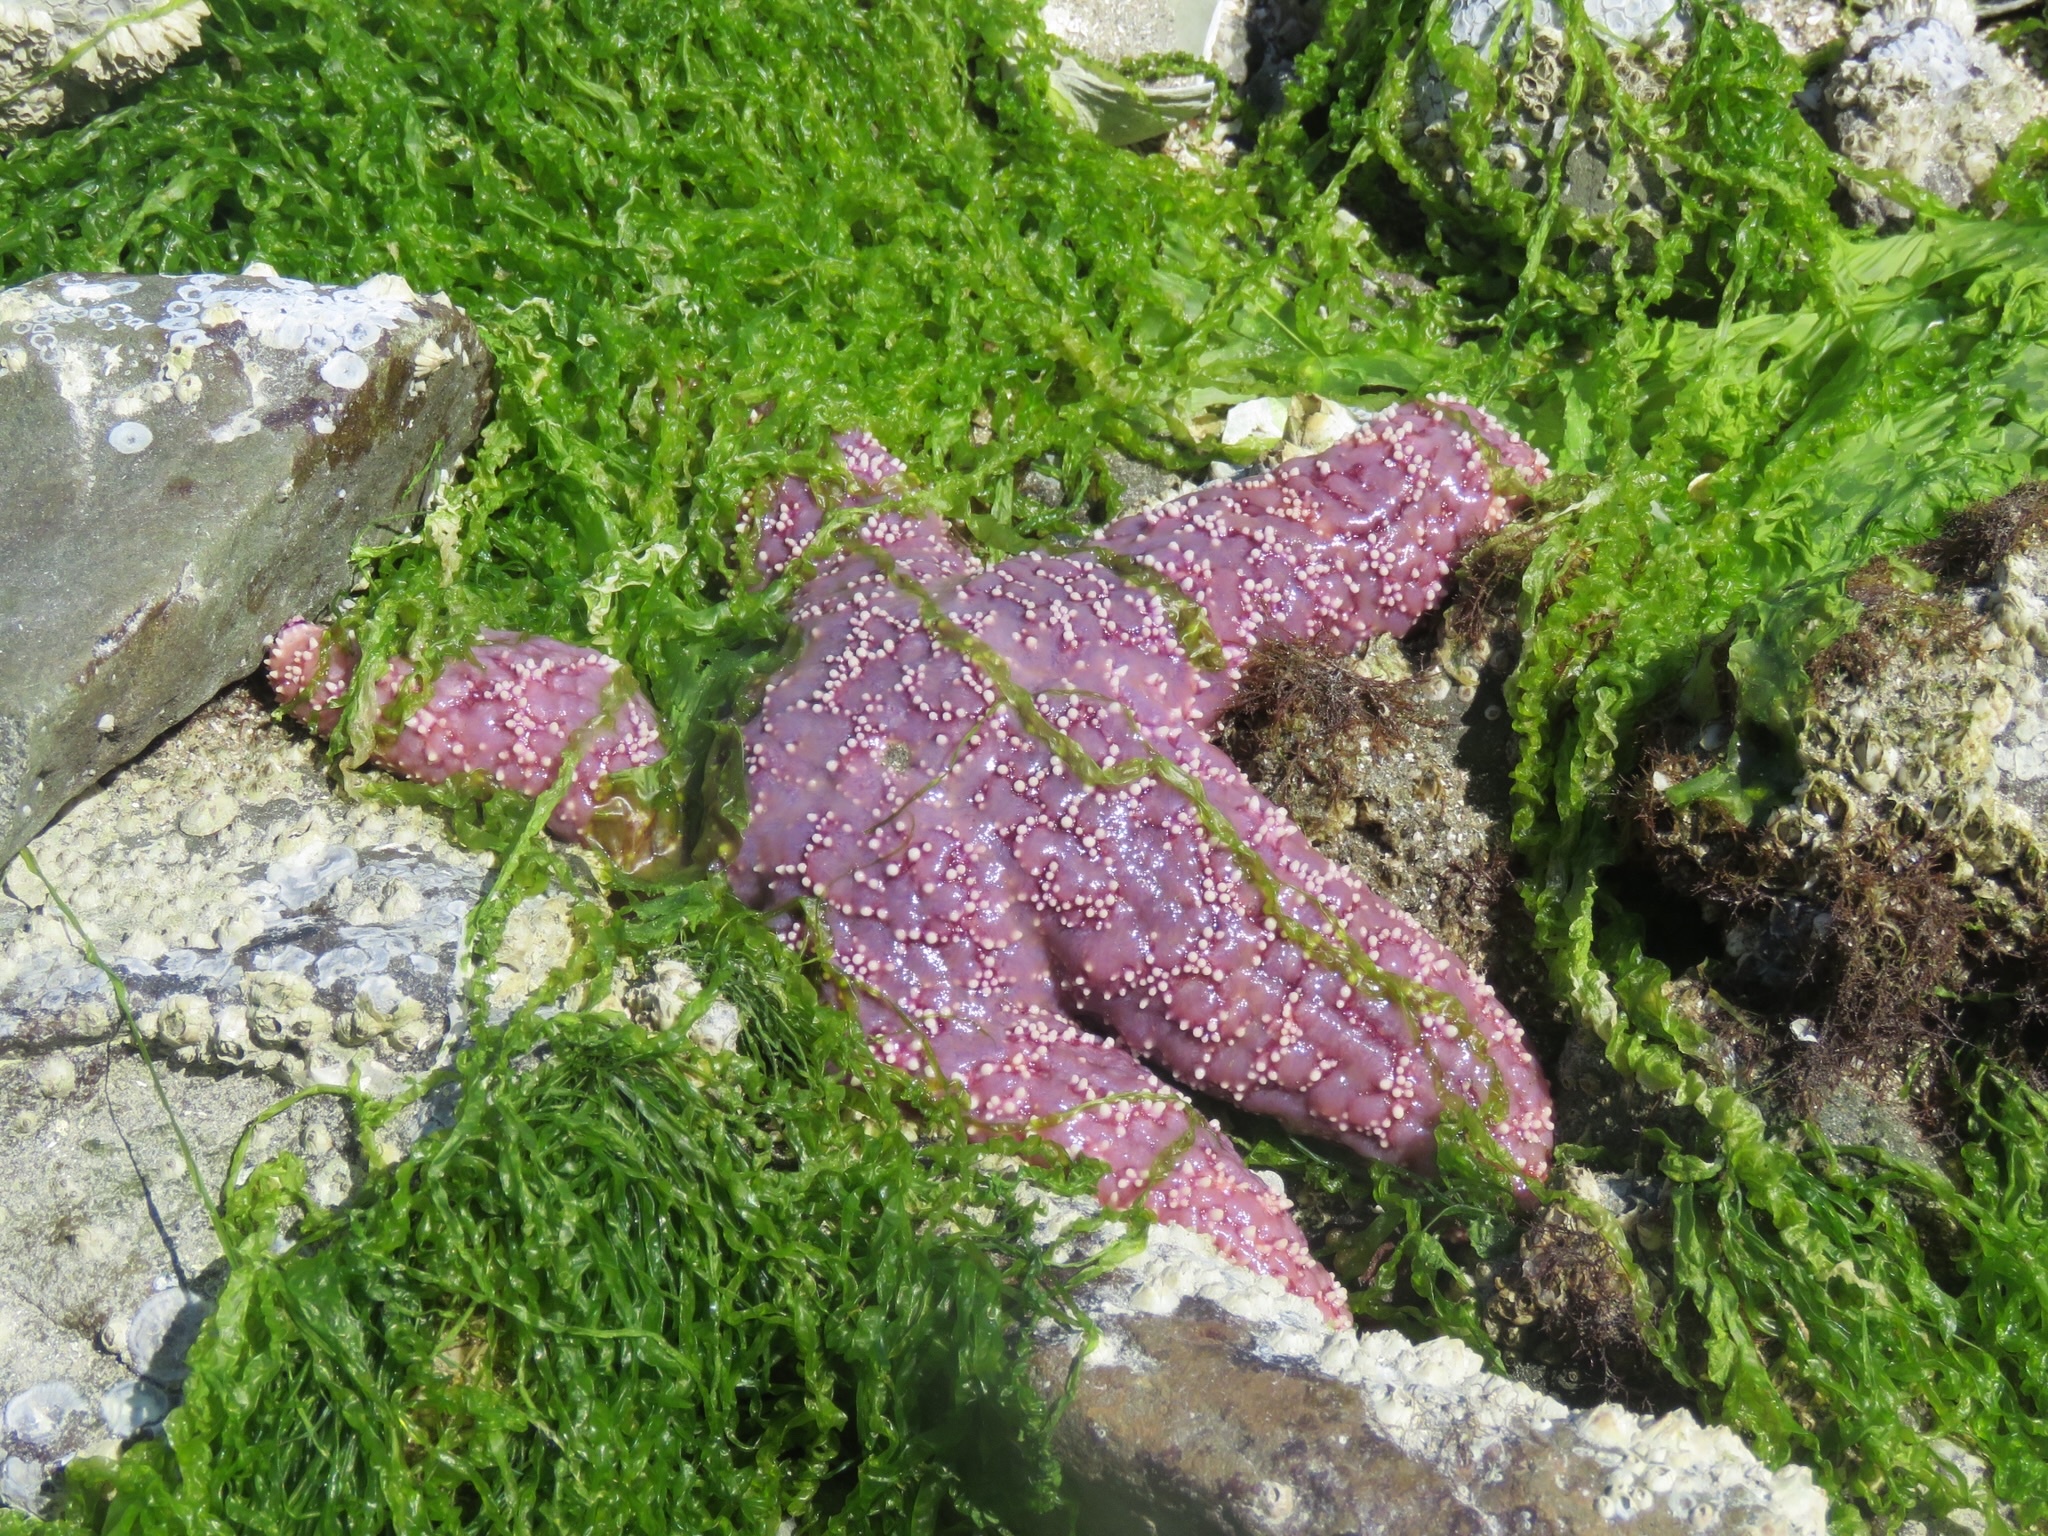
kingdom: Animalia
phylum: Echinodermata
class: Asteroidea
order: Forcipulatida
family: Asteriidae
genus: Pisaster
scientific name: Pisaster ochraceus
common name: Ochre stars
